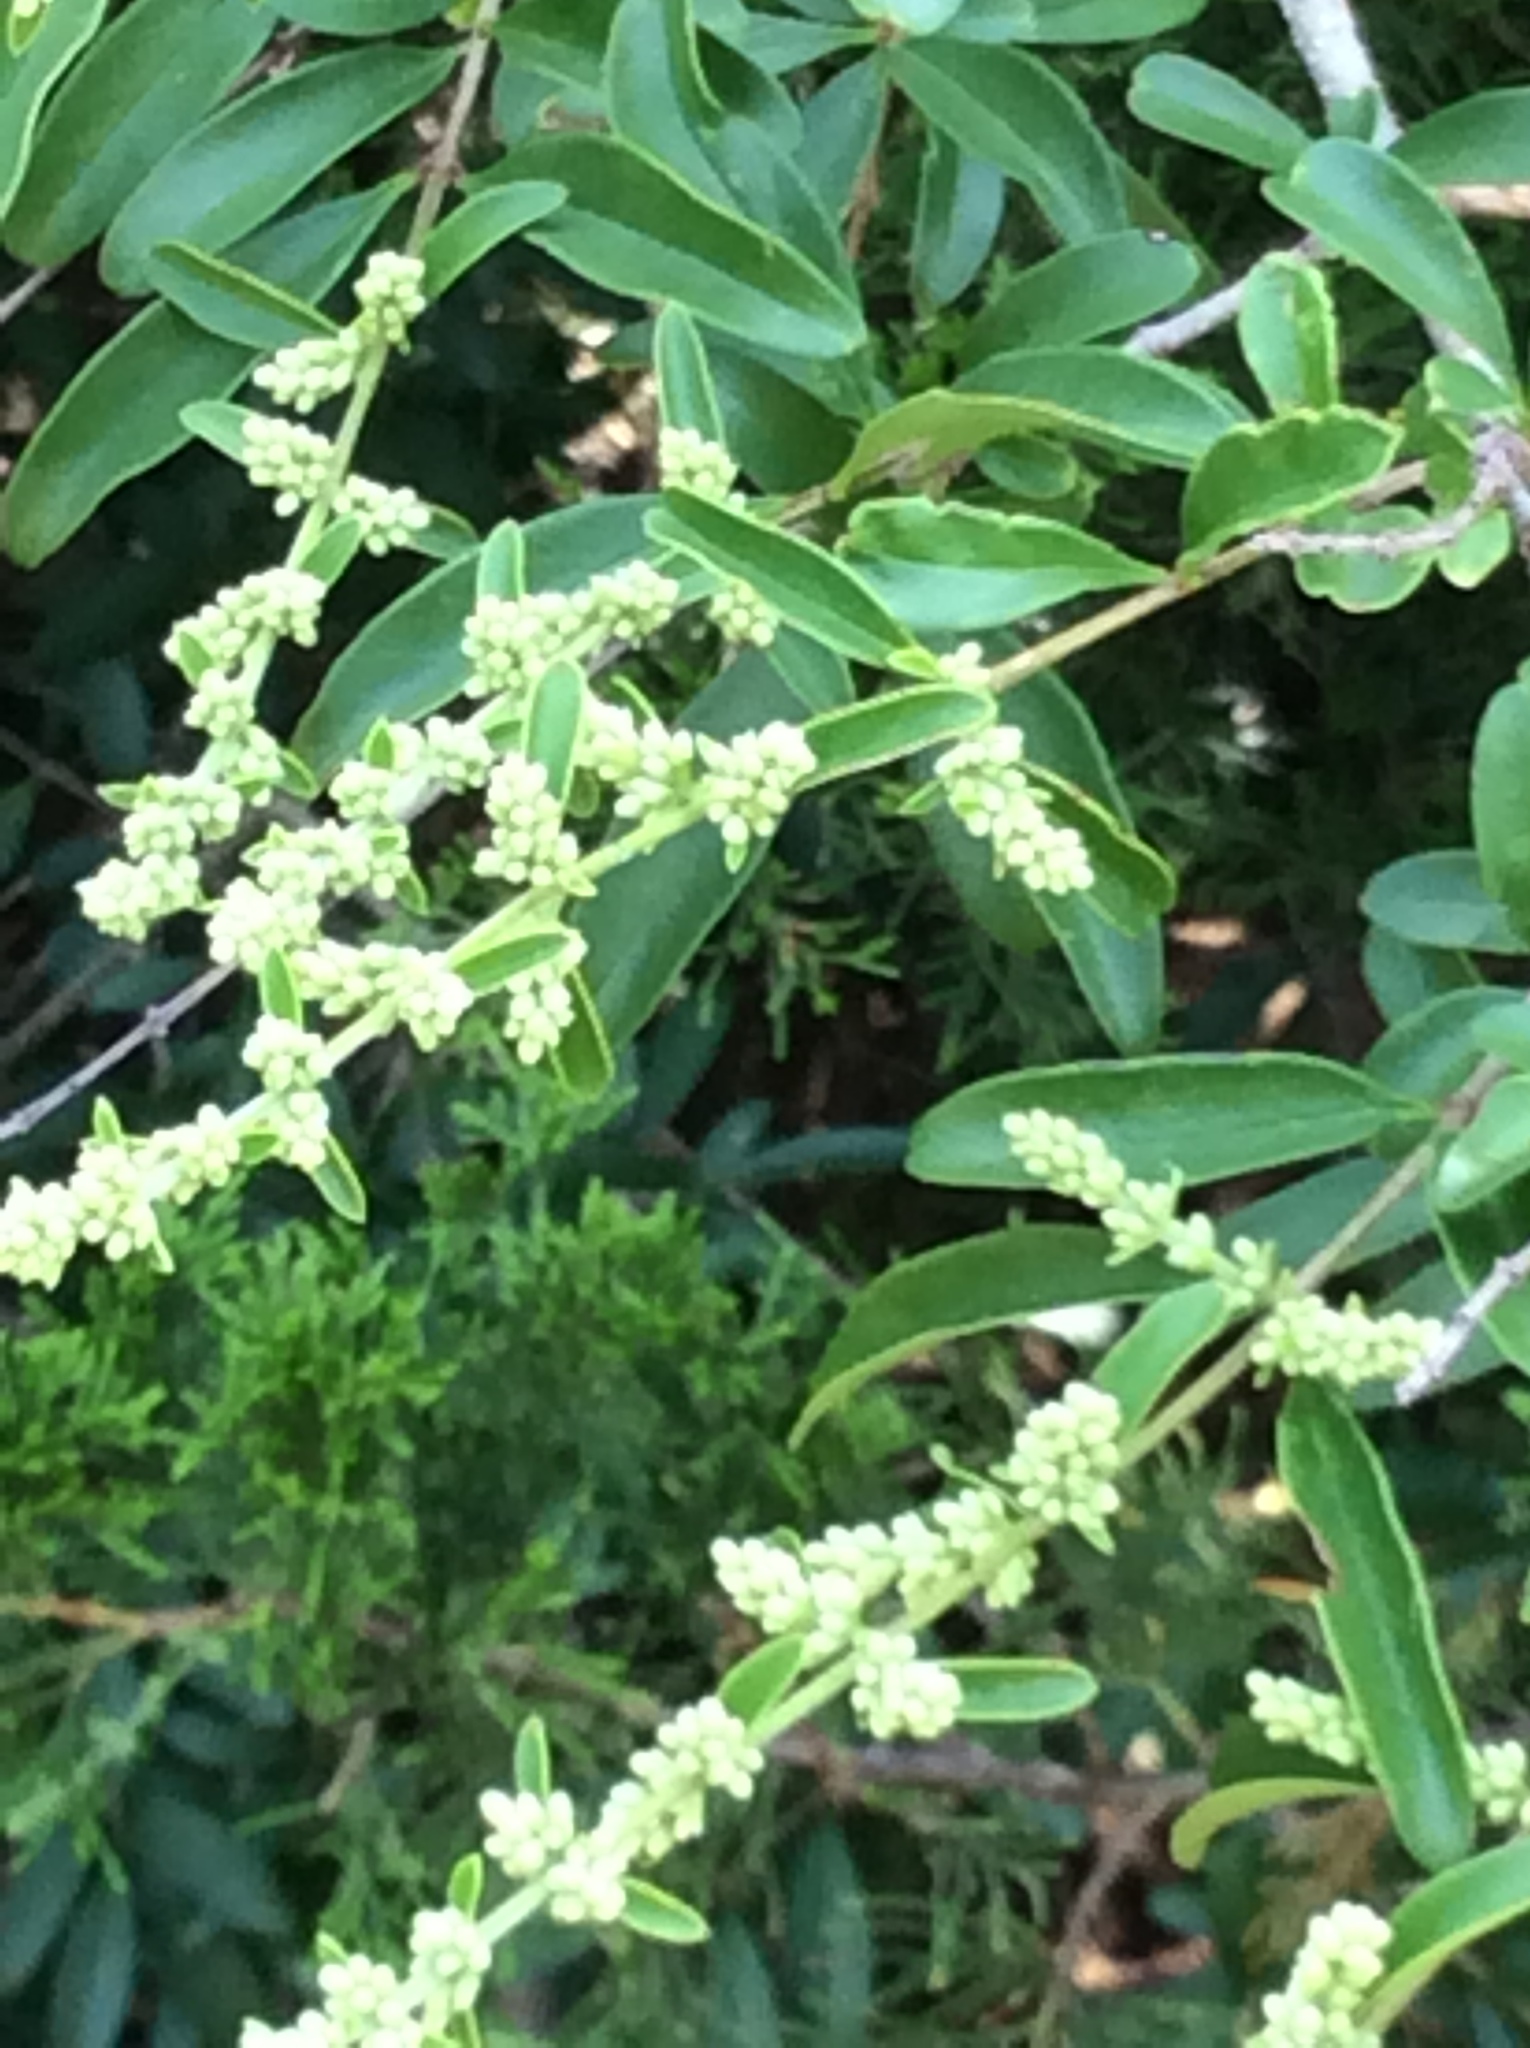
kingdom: Plantae
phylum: Tracheophyta
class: Magnoliopsida
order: Lamiales
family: Oleaceae
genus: Ligustrum
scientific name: Ligustrum quihoui
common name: Waxyleaf privet
